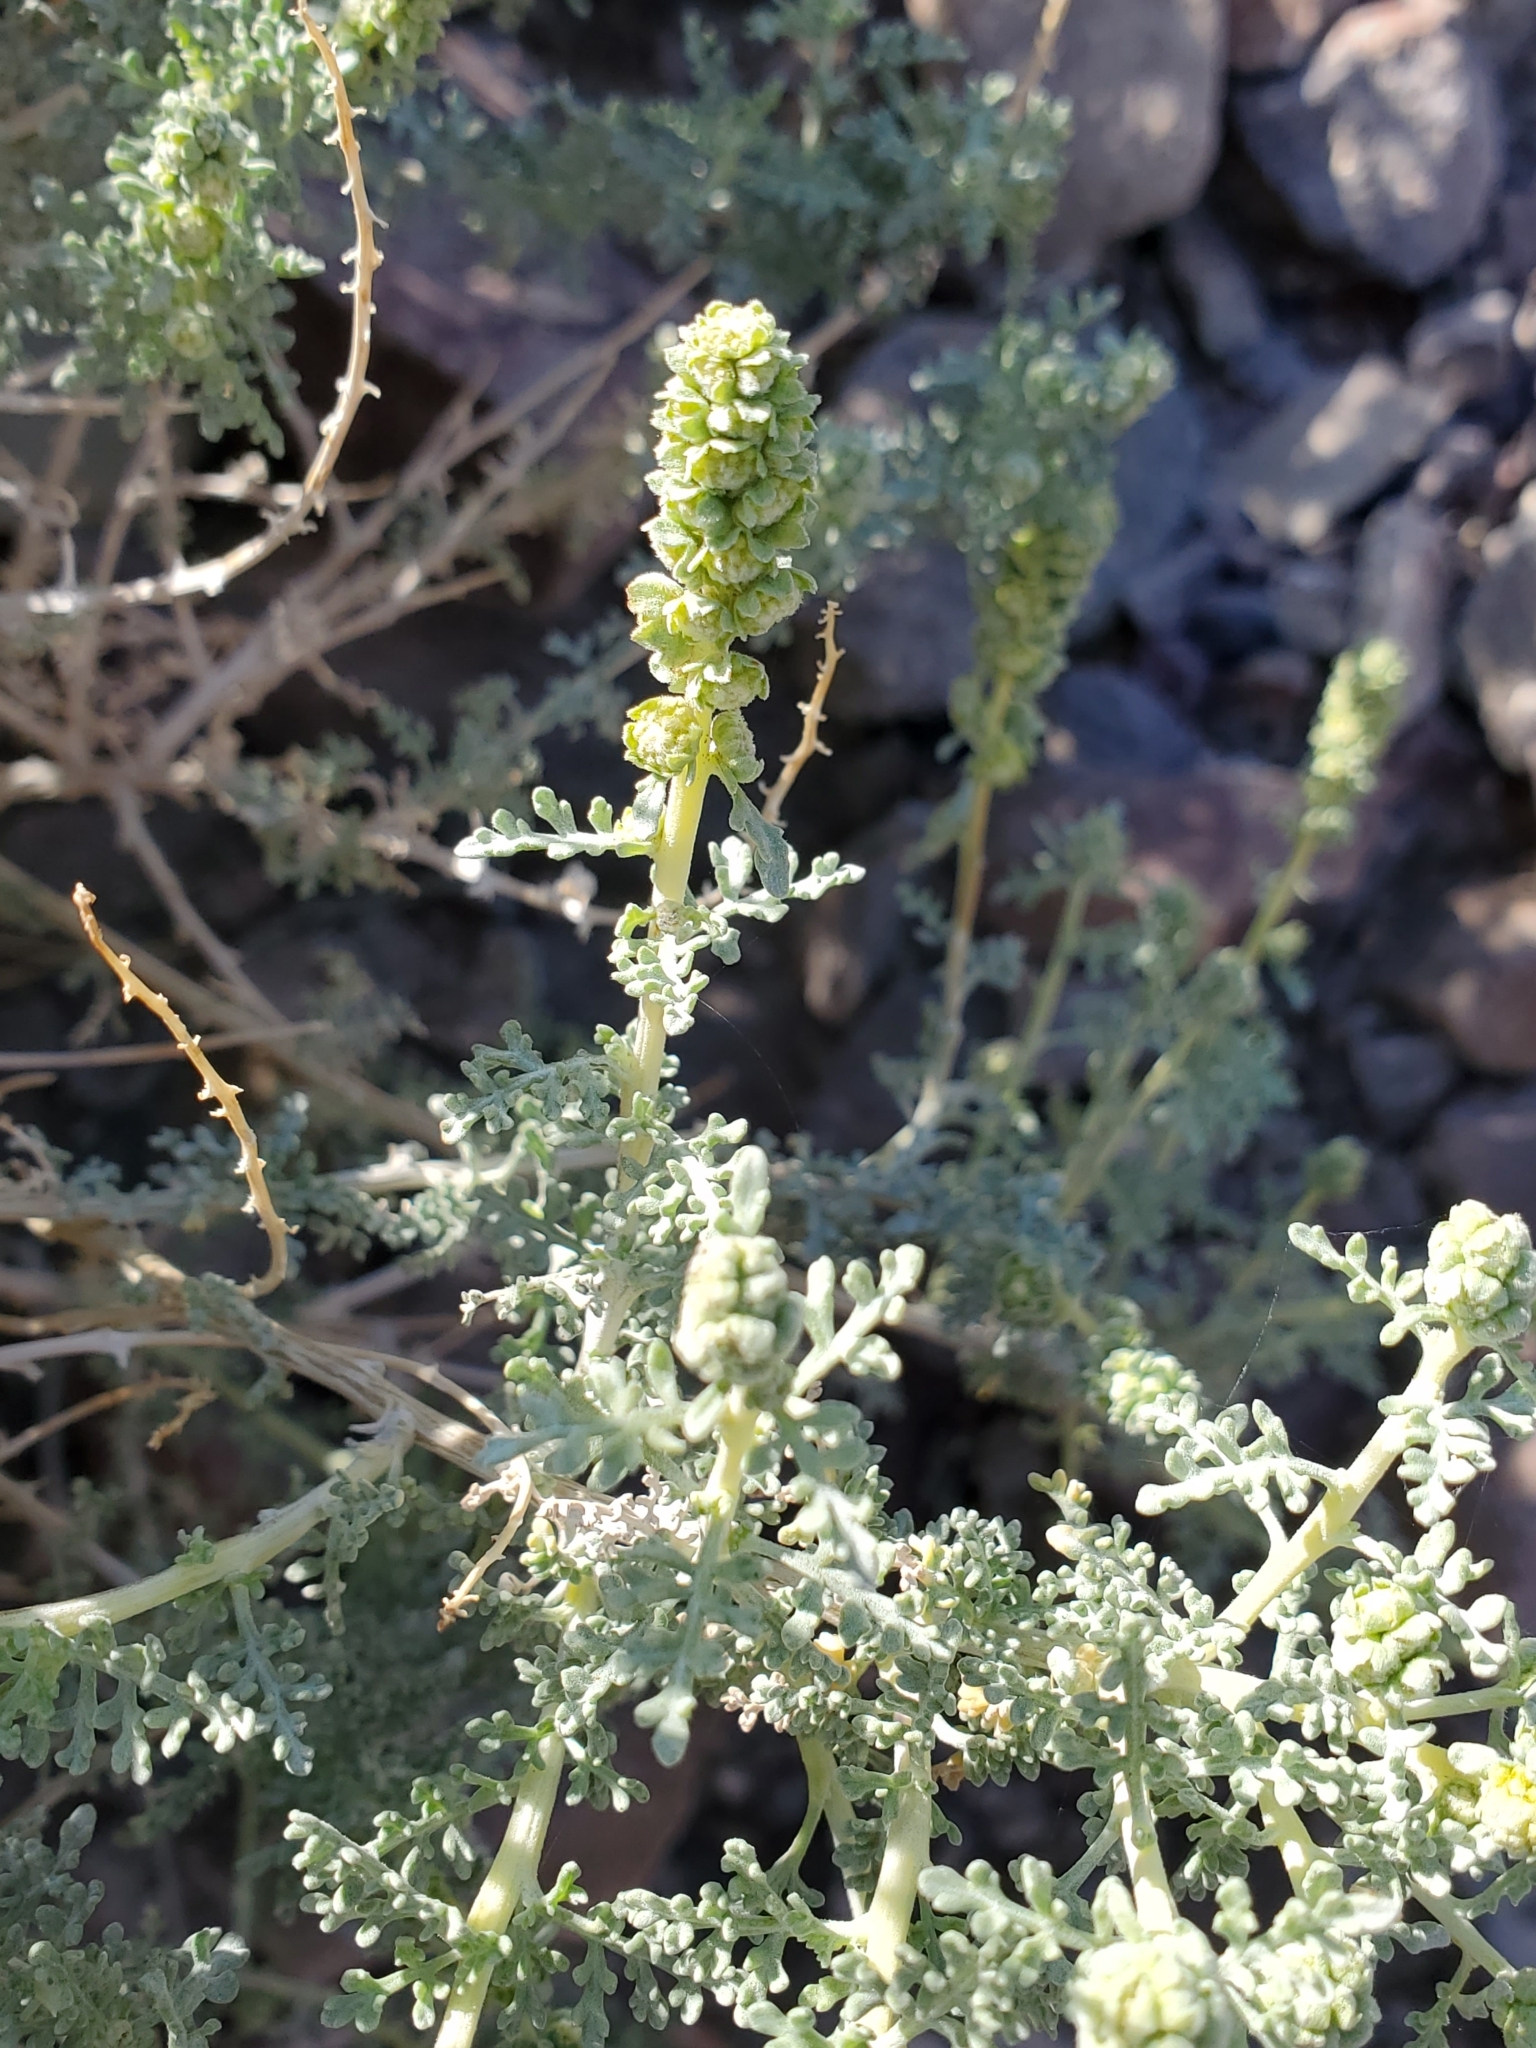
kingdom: Plantae
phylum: Tracheophyta
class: Magnoliopsida
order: Asterales
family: Asteraceae
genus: Ambrosia
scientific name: Ambrosia dumosa
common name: Bur-sage
